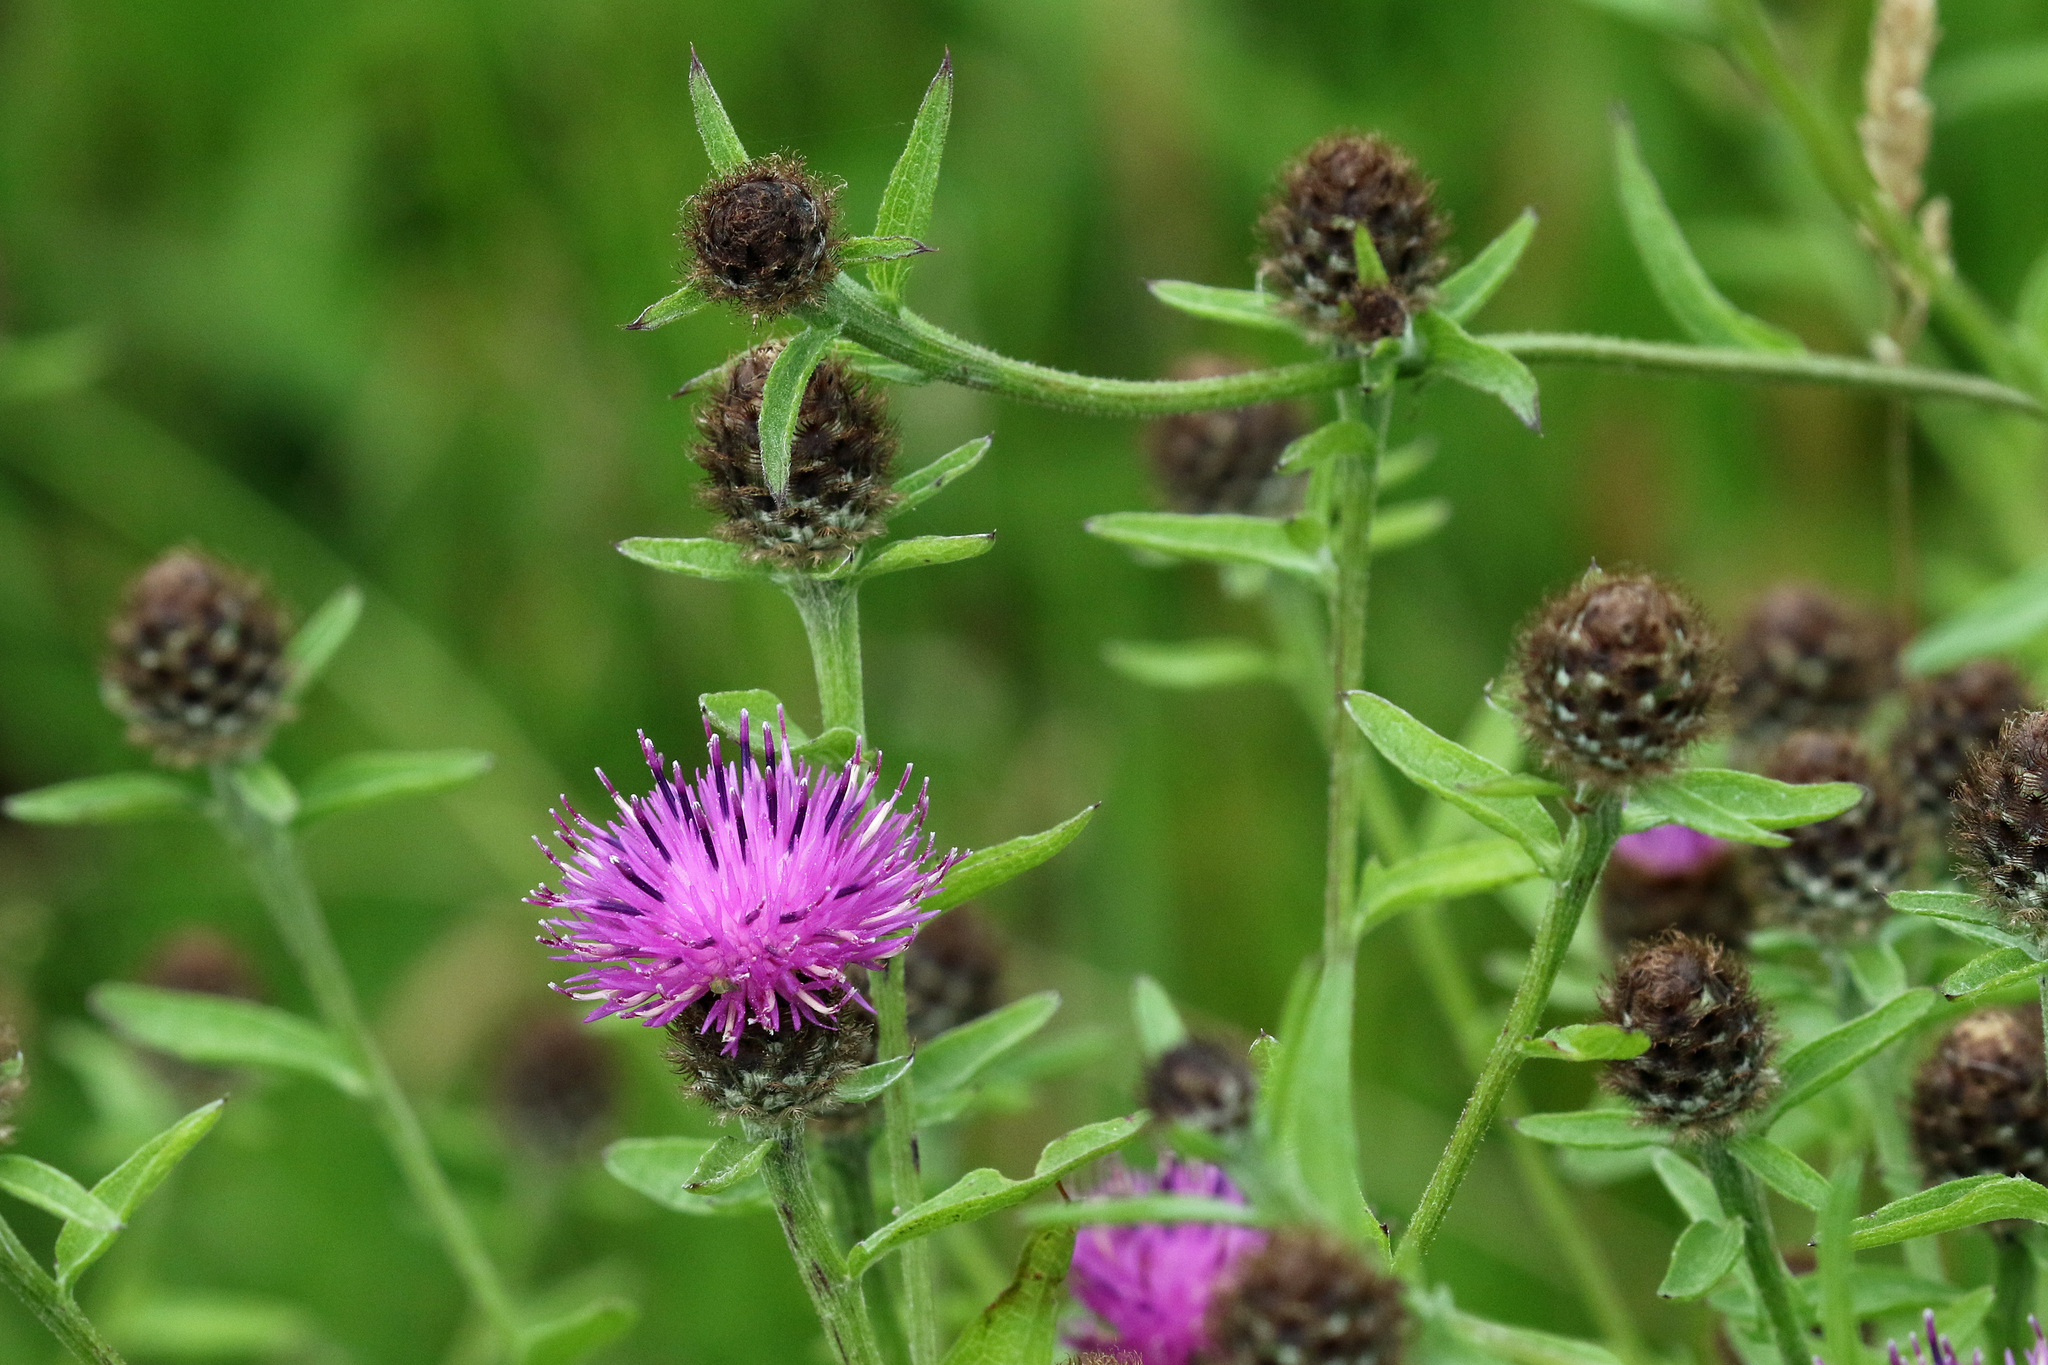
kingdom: Plantae
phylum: Tracheophyta
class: Magnoliopsida
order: Asterales
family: Asteraceae
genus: Centaurea
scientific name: Centaurea nigra
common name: Lesser knapweed
